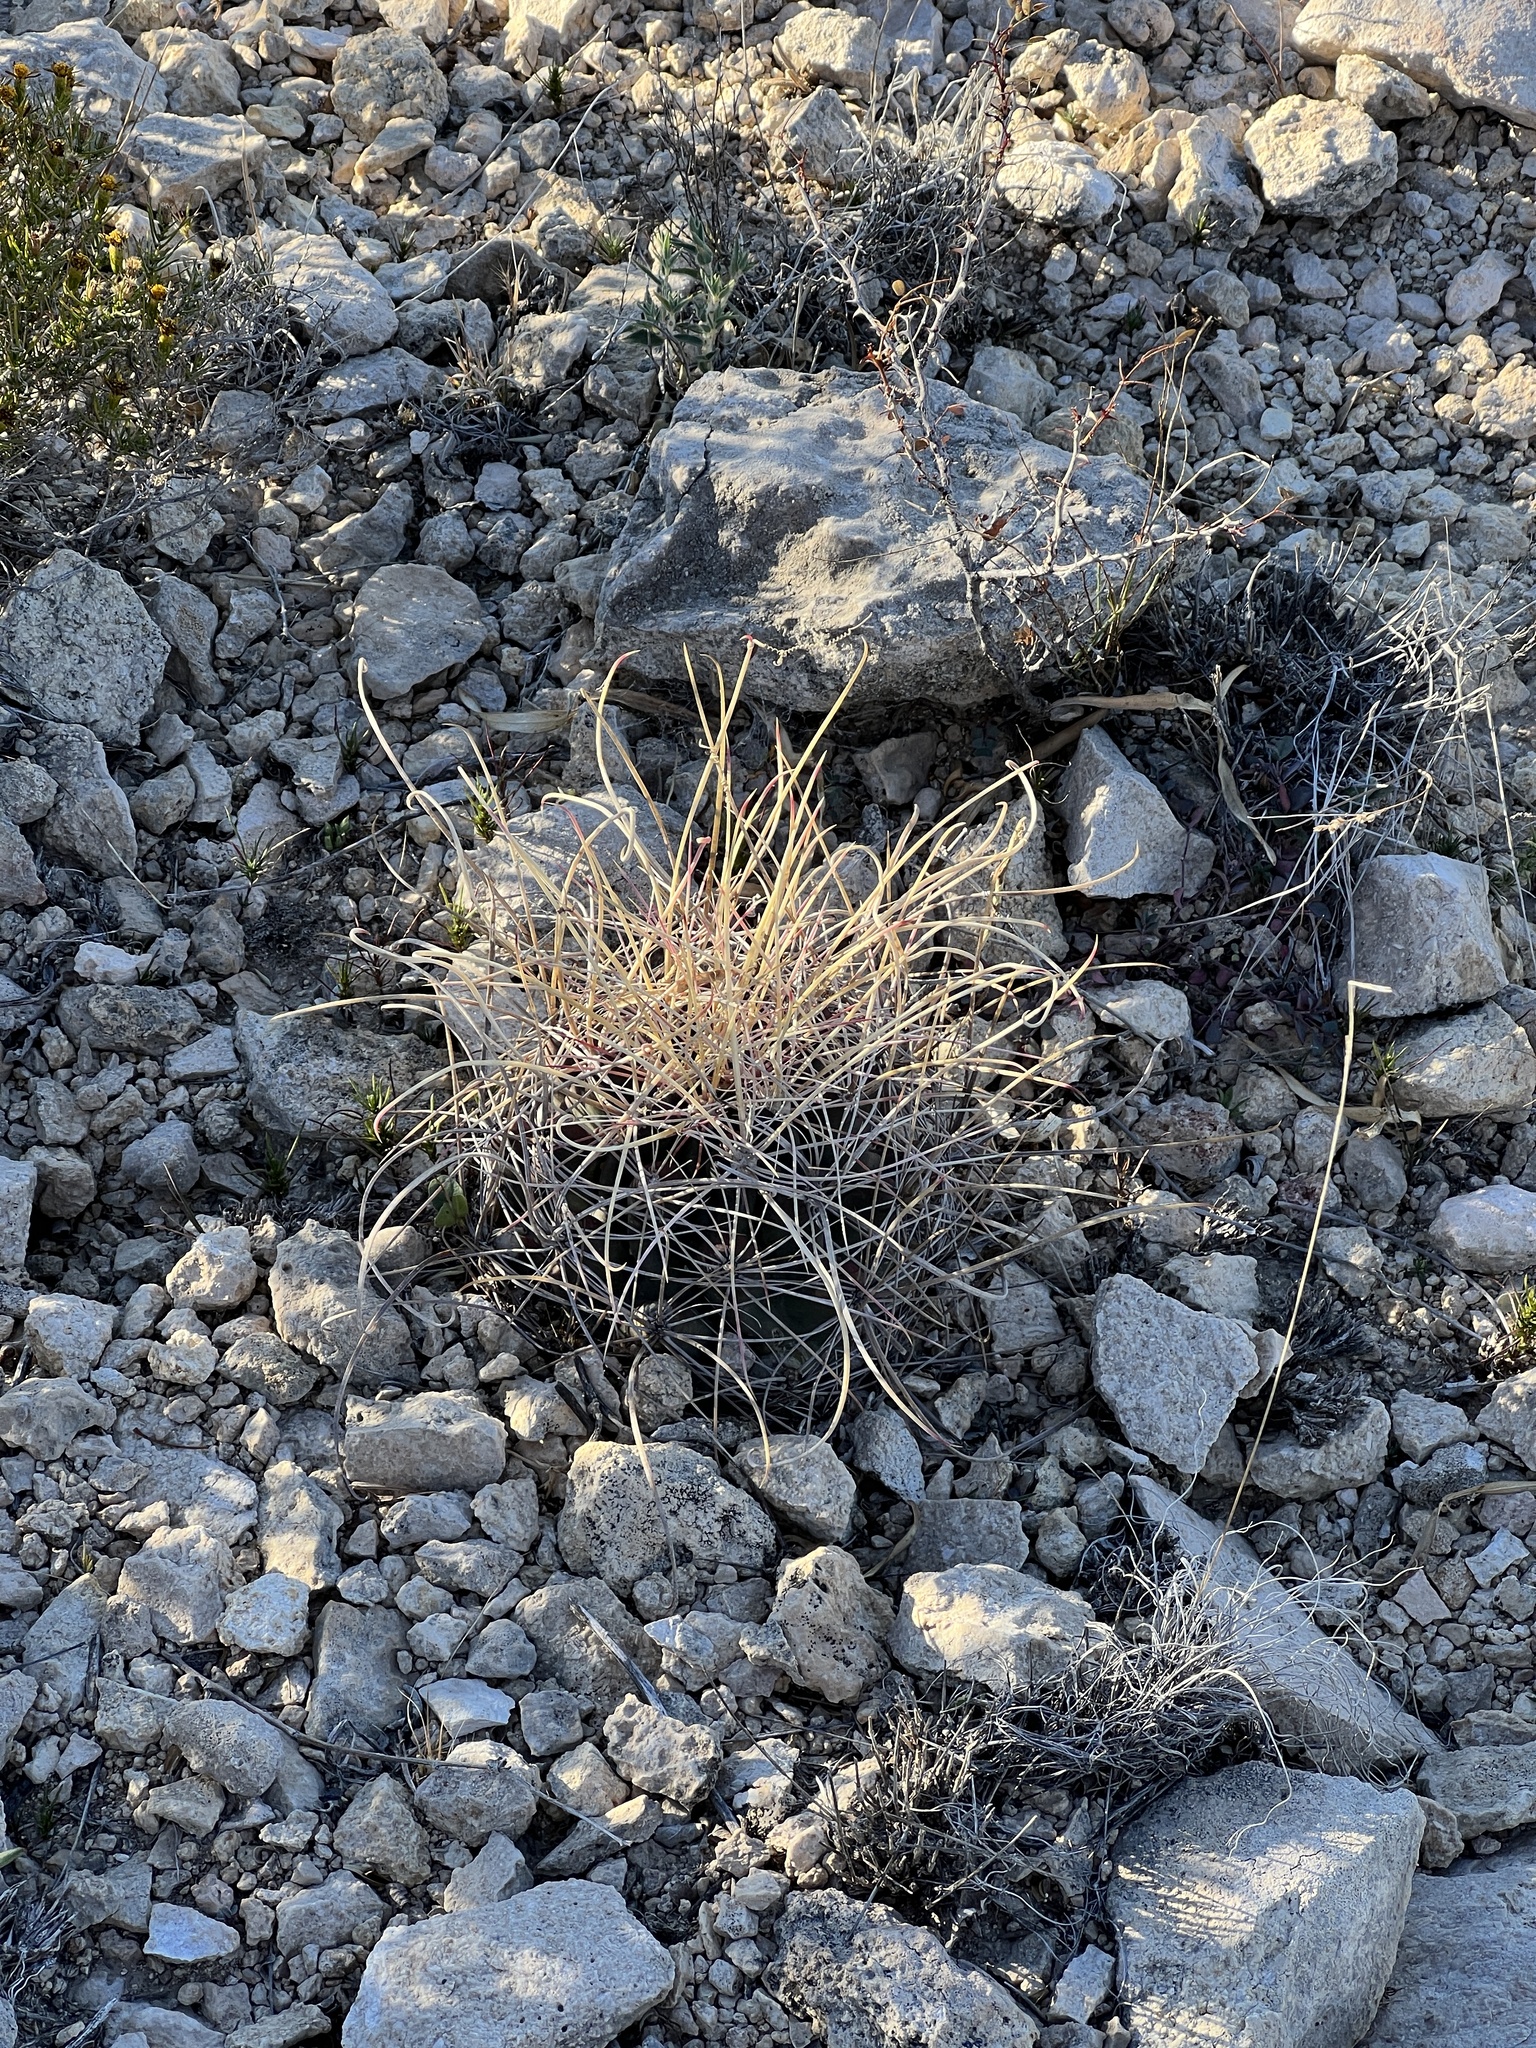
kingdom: Plantae
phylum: Tracheophyta
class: Magnoliopsida
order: Caryophyllales
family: Cactaceae
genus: Ferocactus
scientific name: Ferocactus uncinatus
